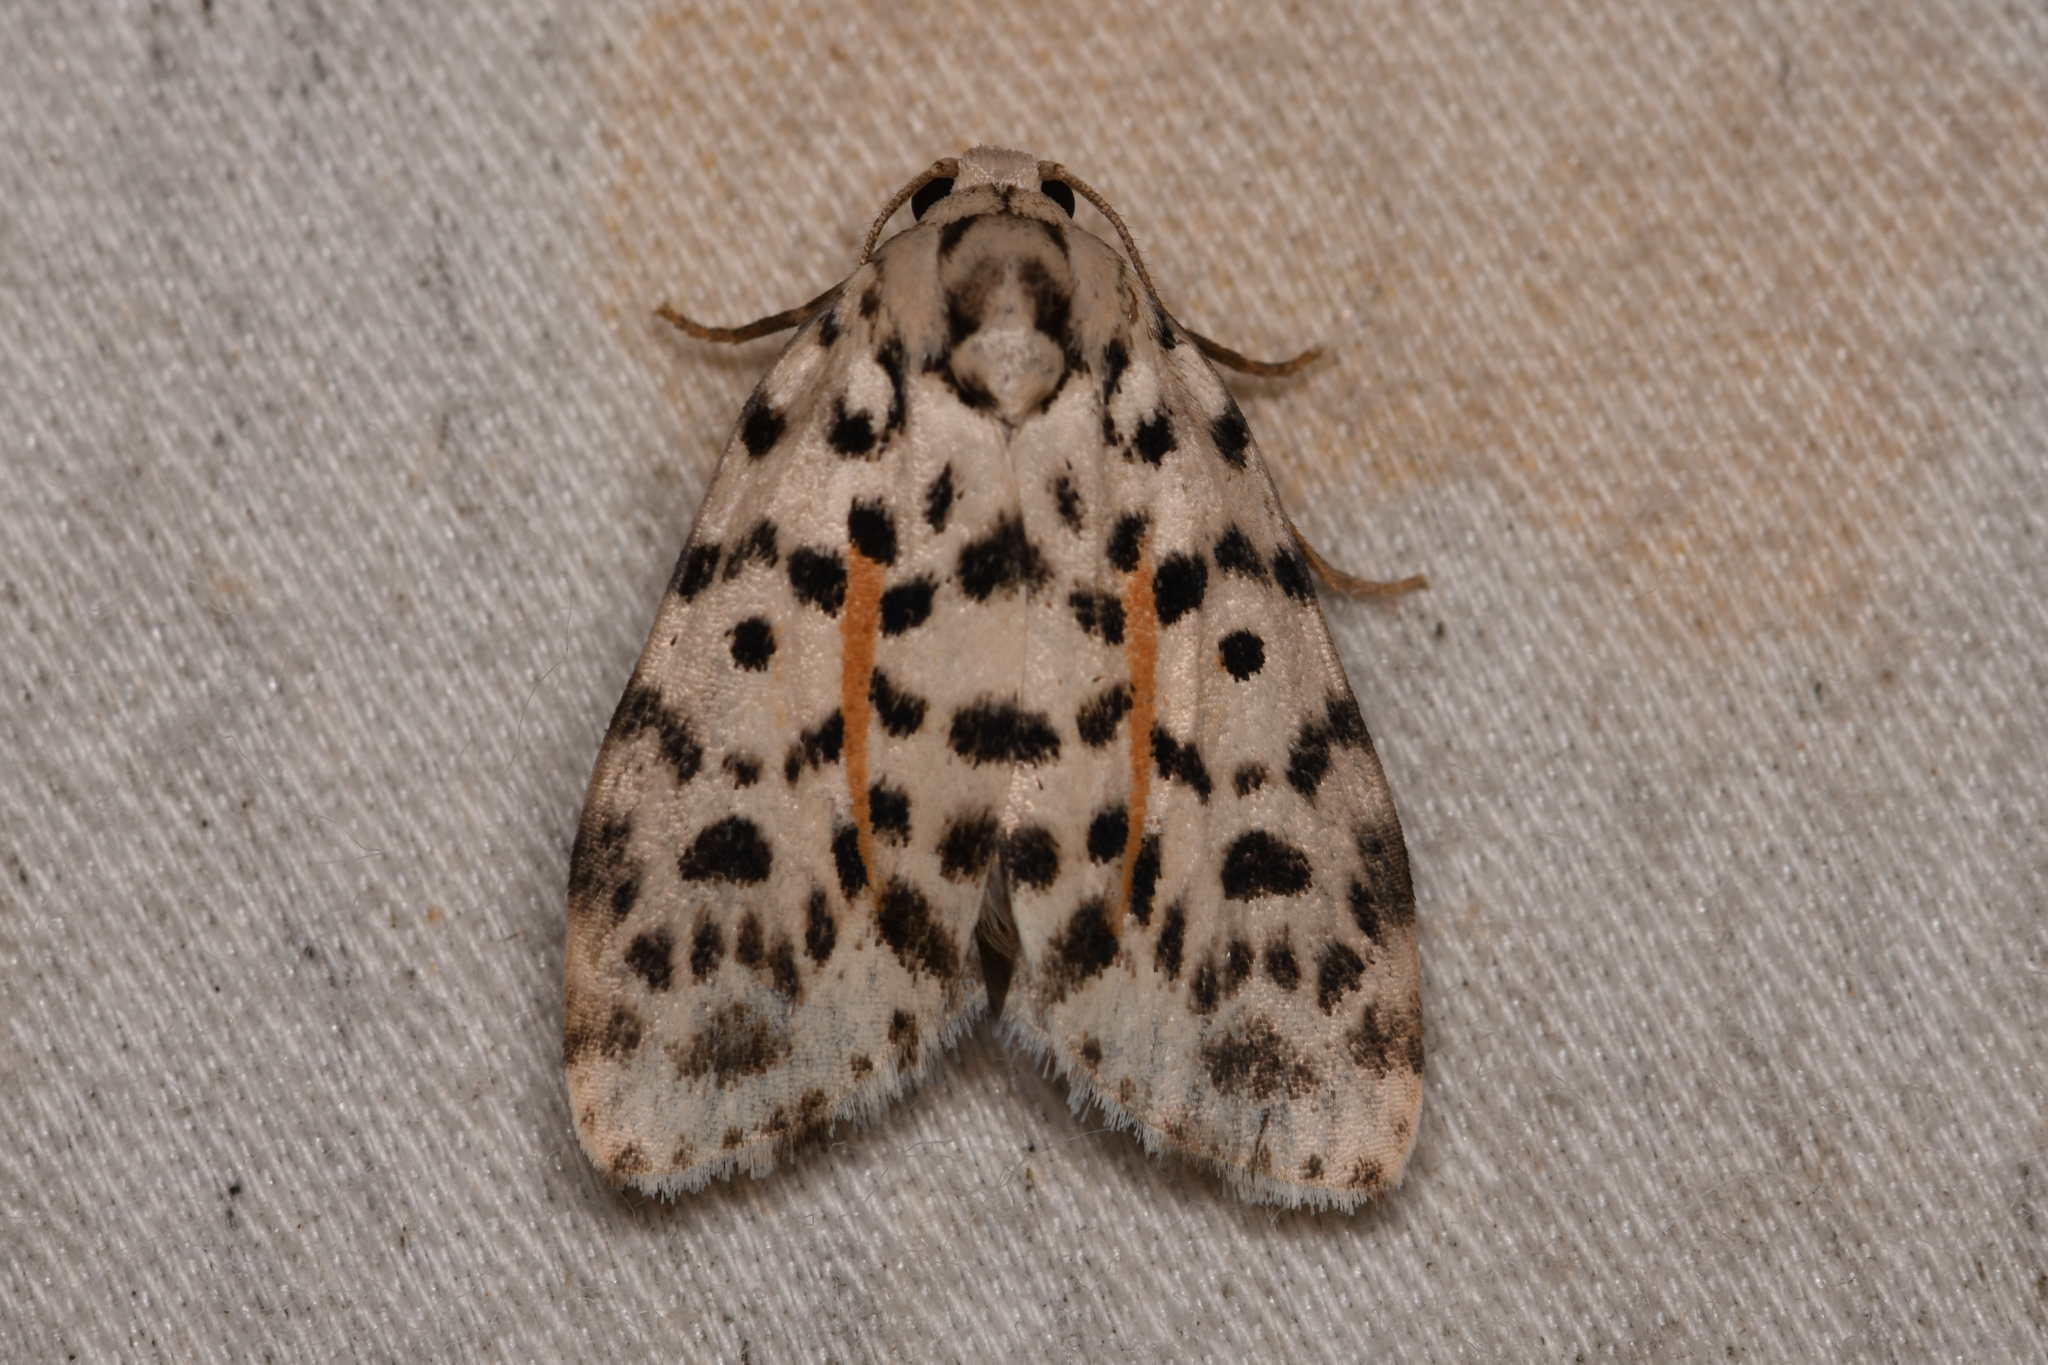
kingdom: Animalia
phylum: Arthropoda
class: Insecta
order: Lepidoptera
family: Erebidae
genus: Clemensia
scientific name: Clemensia leopardina
